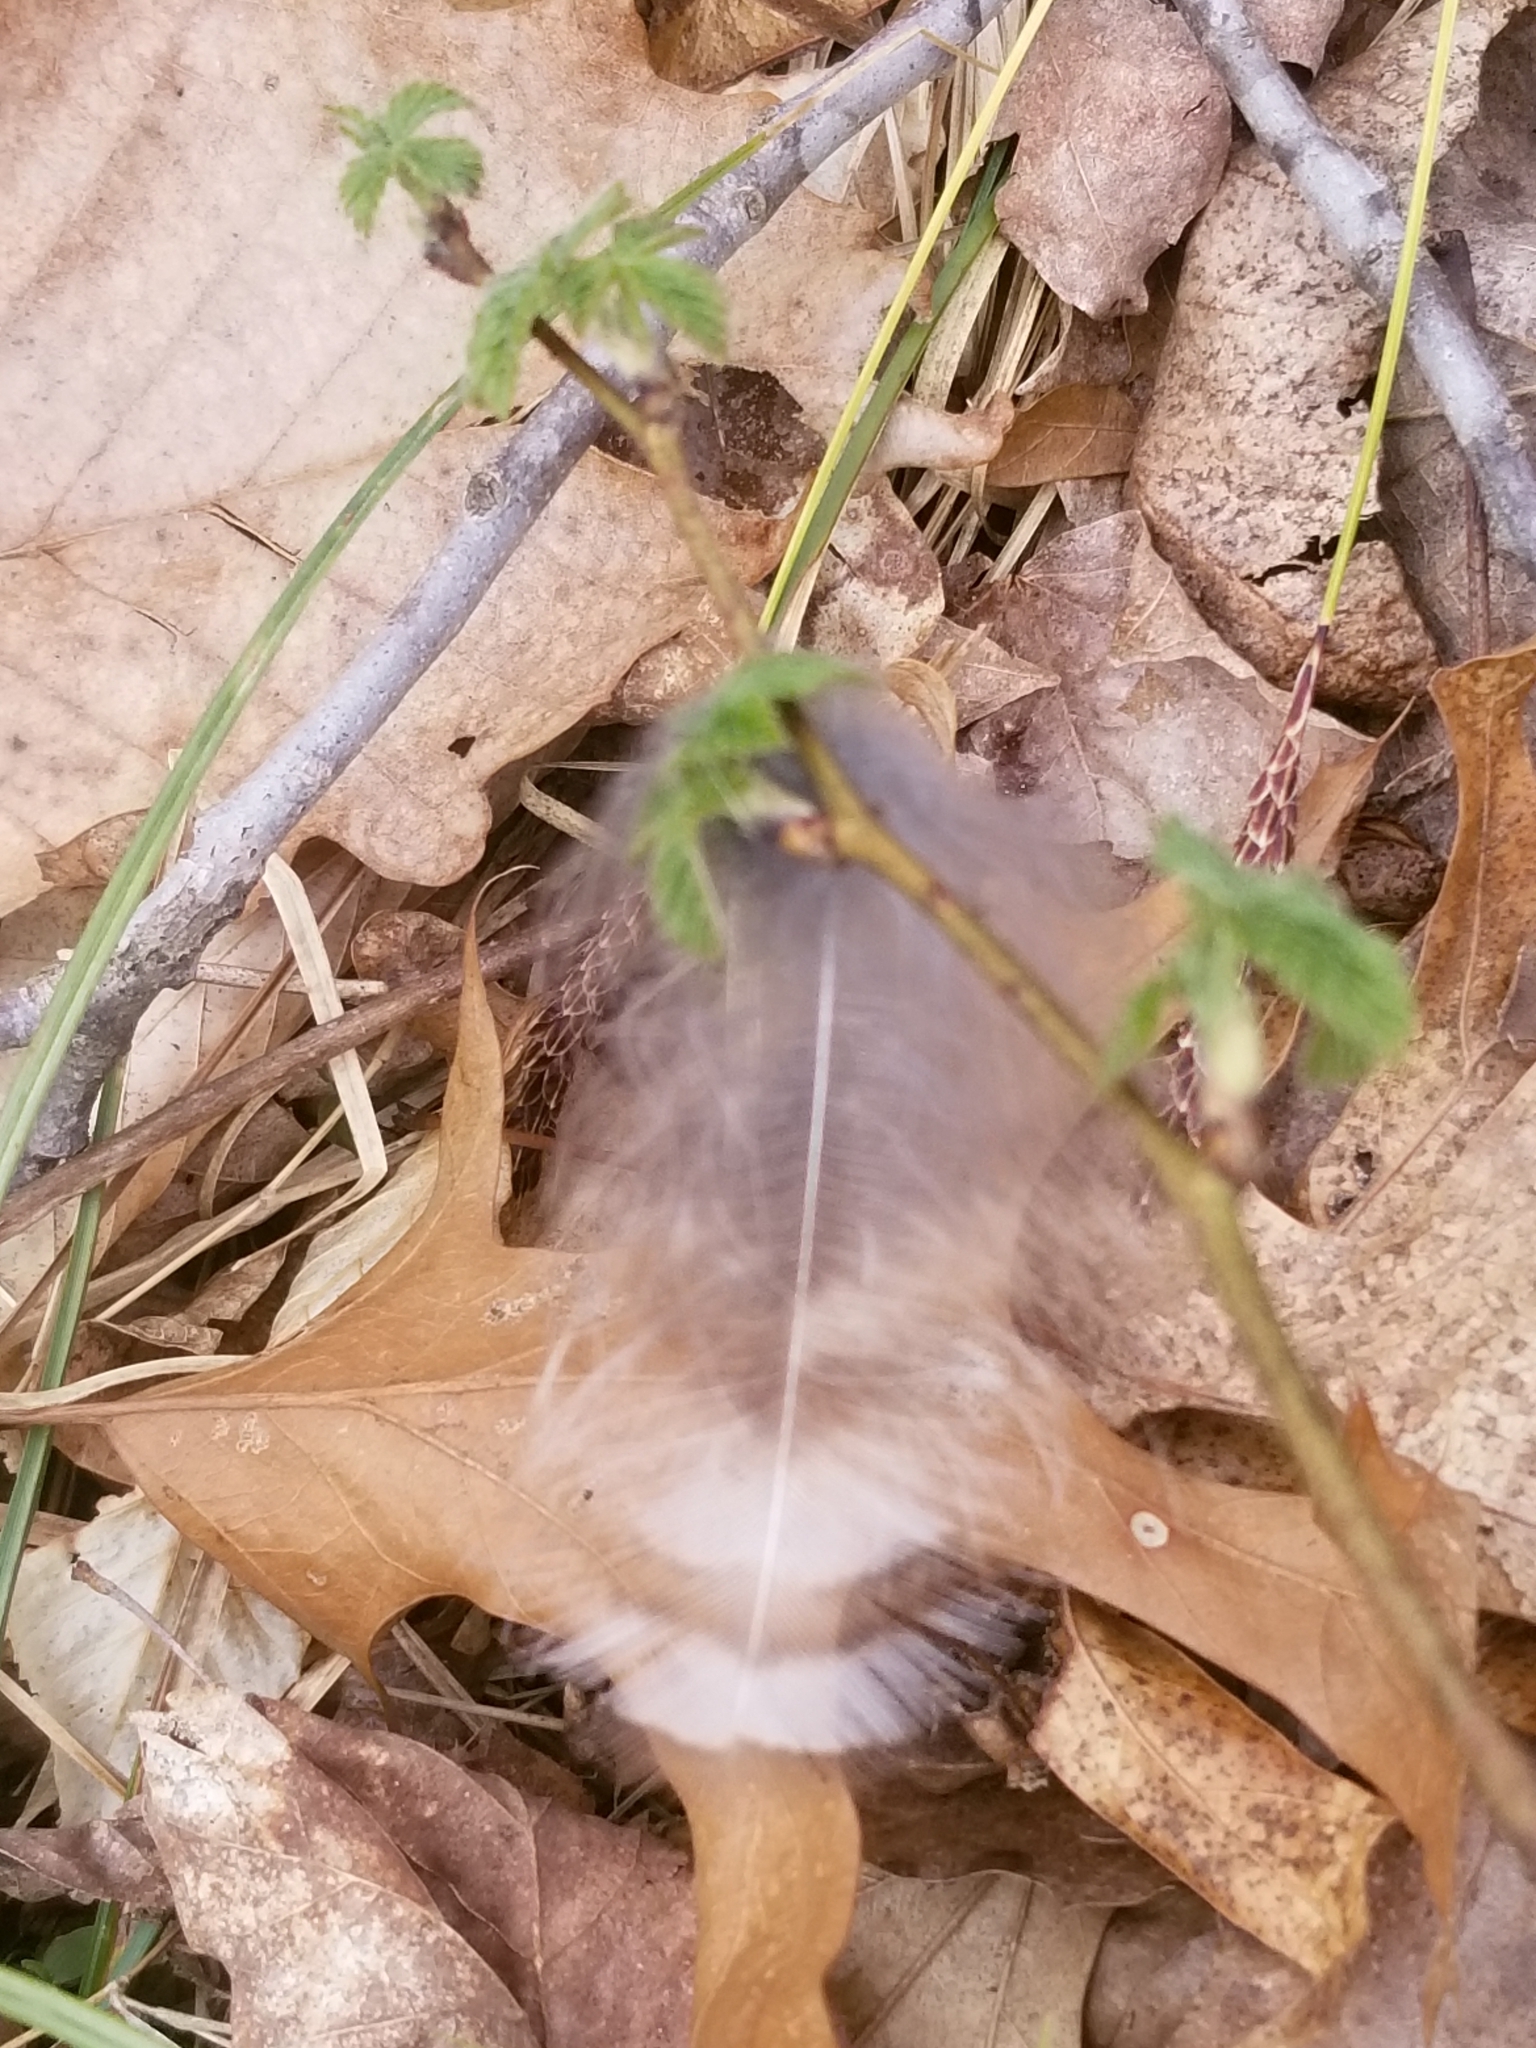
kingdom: Animalia
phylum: Chordata
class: Aves
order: Strigiformes
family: Strigidae
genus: Strix
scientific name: Strix varia
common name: Barred owl
